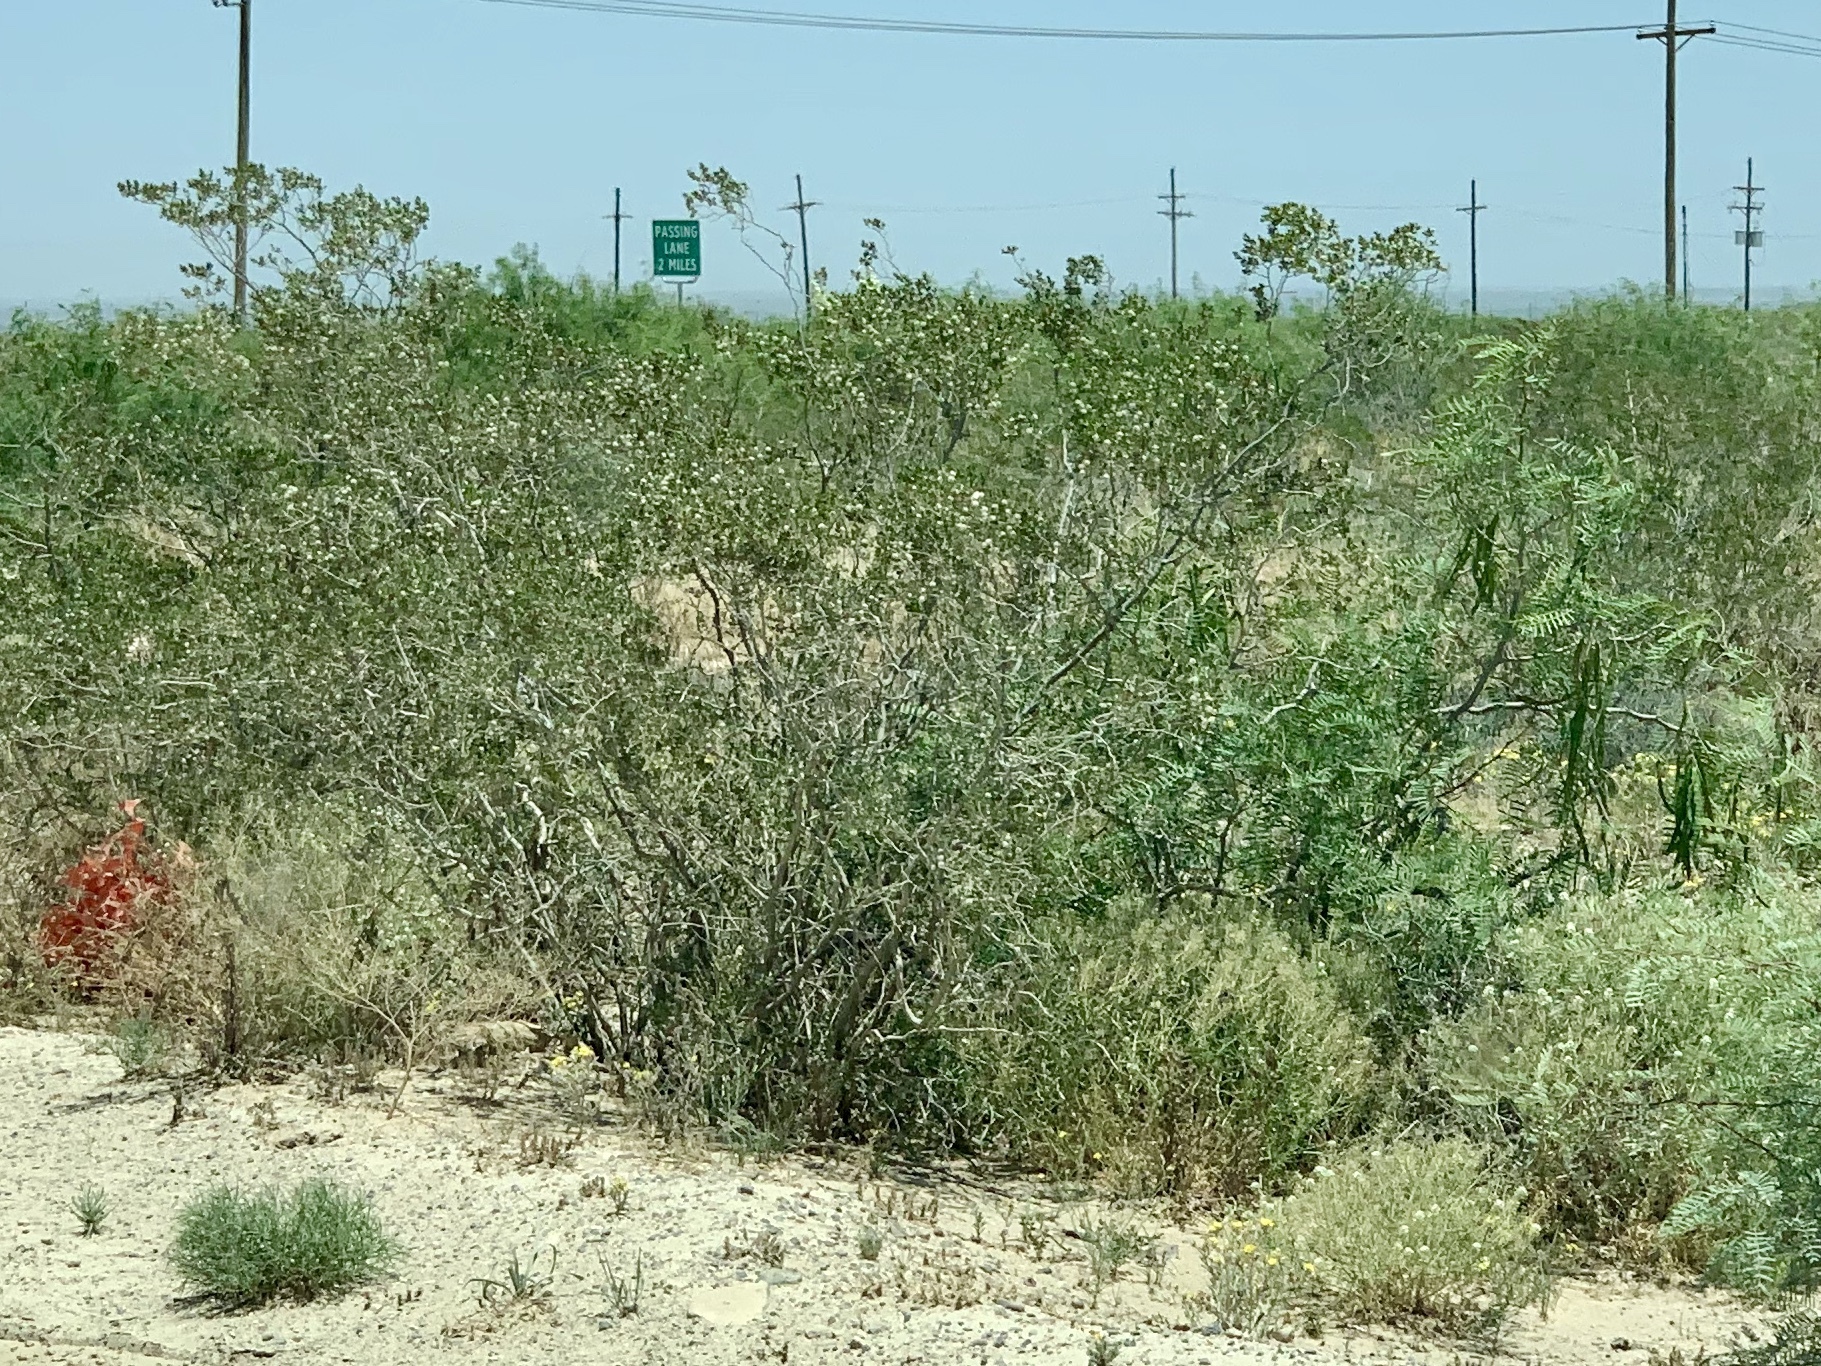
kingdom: Plantae
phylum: Tracheophyta
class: Magnoliopsida
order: Zygophyllales
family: Zygophyllaceae
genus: Larrea
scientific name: Larrea tridentata
